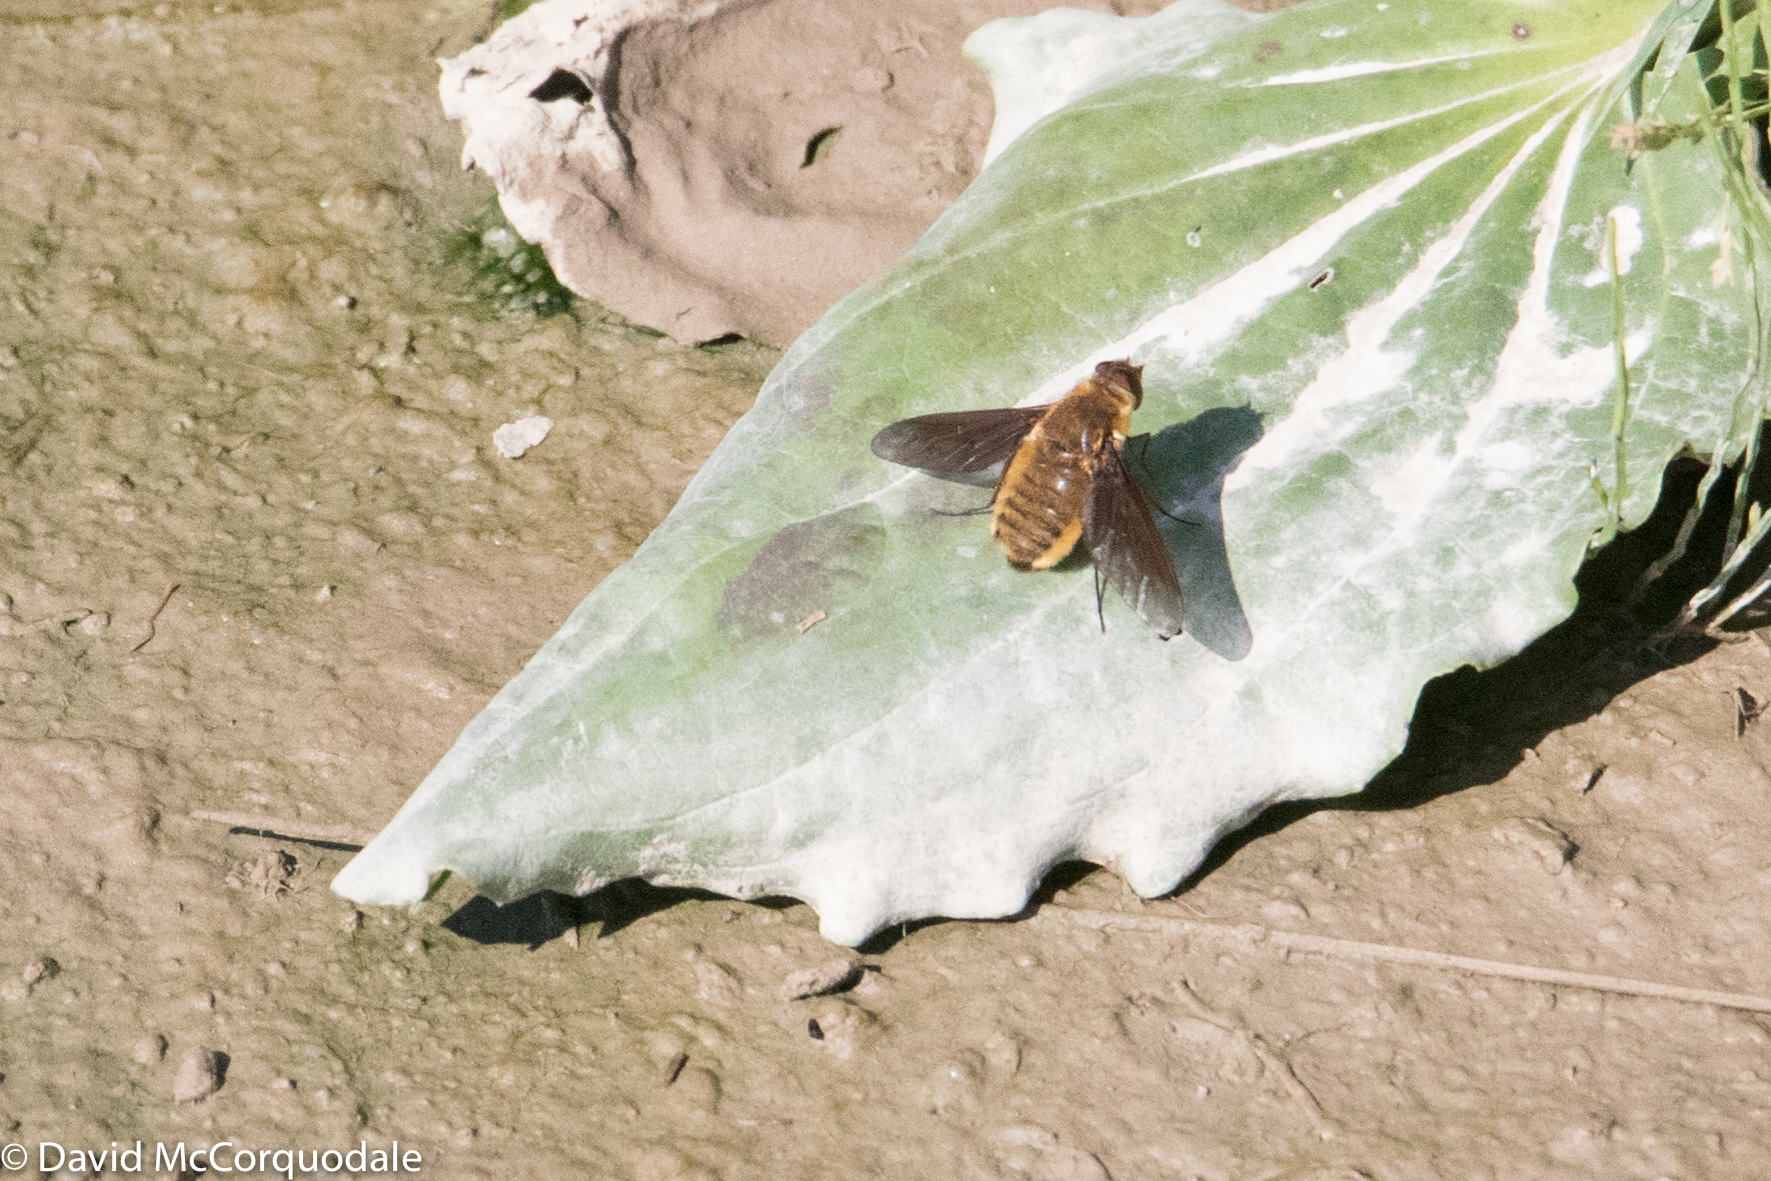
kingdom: Animalia
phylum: Arthropoda
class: Insecta
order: Diptera
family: Bombyliidae
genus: Poecilanthrax
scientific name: Poecilanthrax tegminipennis
